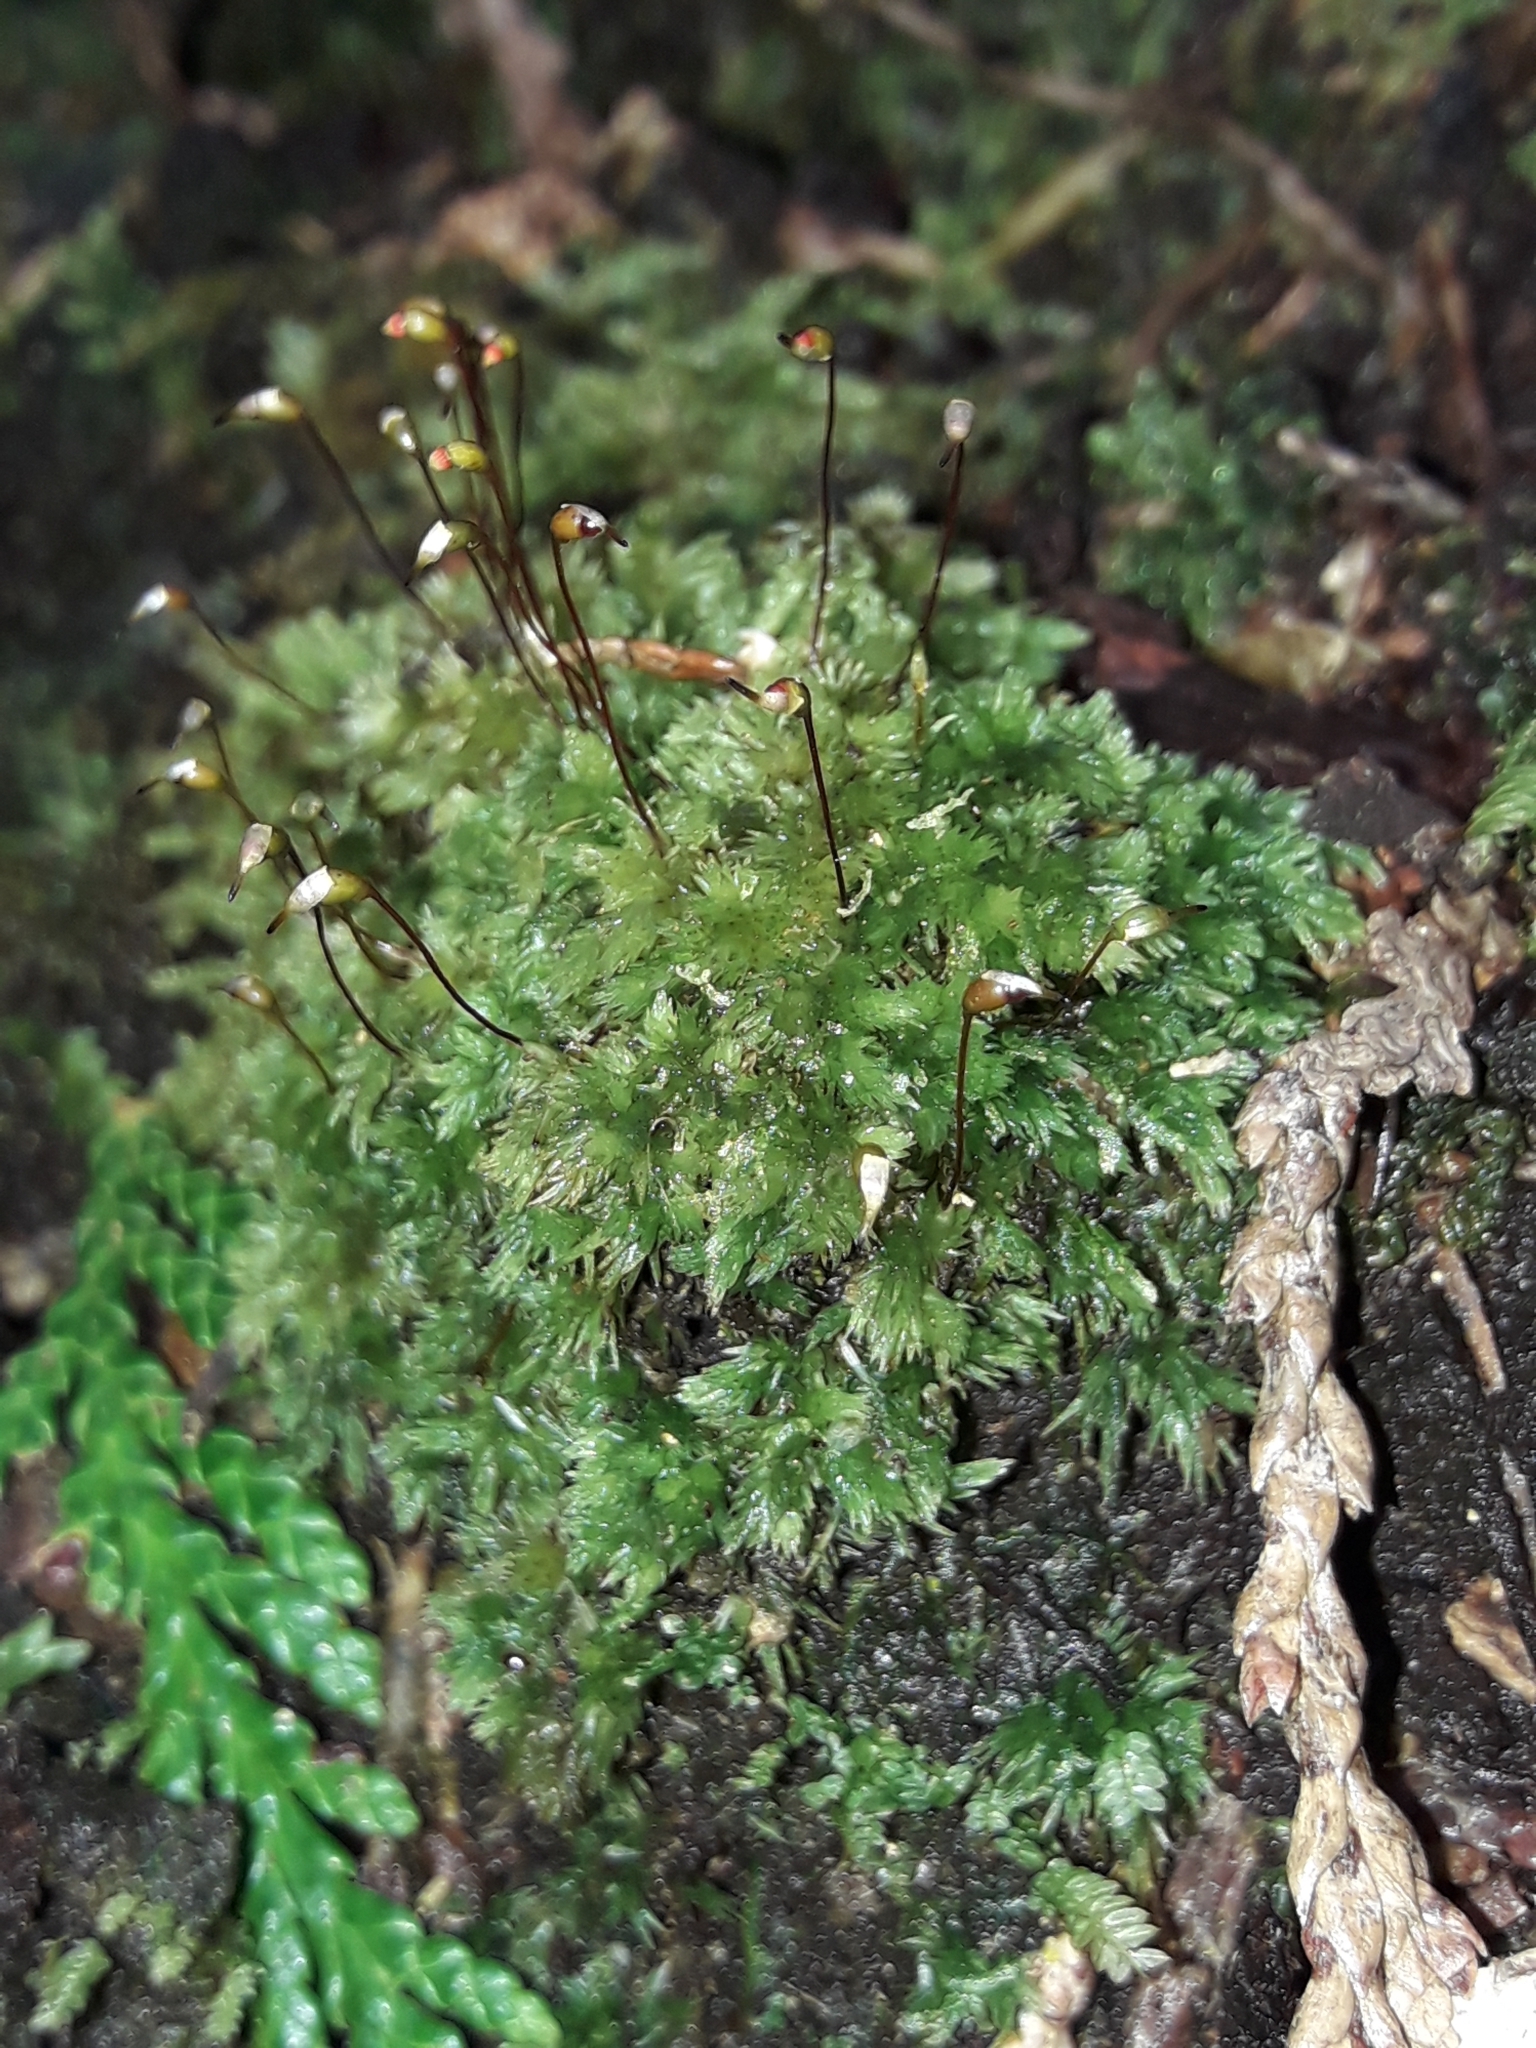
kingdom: Plantae
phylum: Bryophyta
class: Bryopsida
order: Dicranales
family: Leucobryaceae
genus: Leucobryum
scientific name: Leucobryum javense
